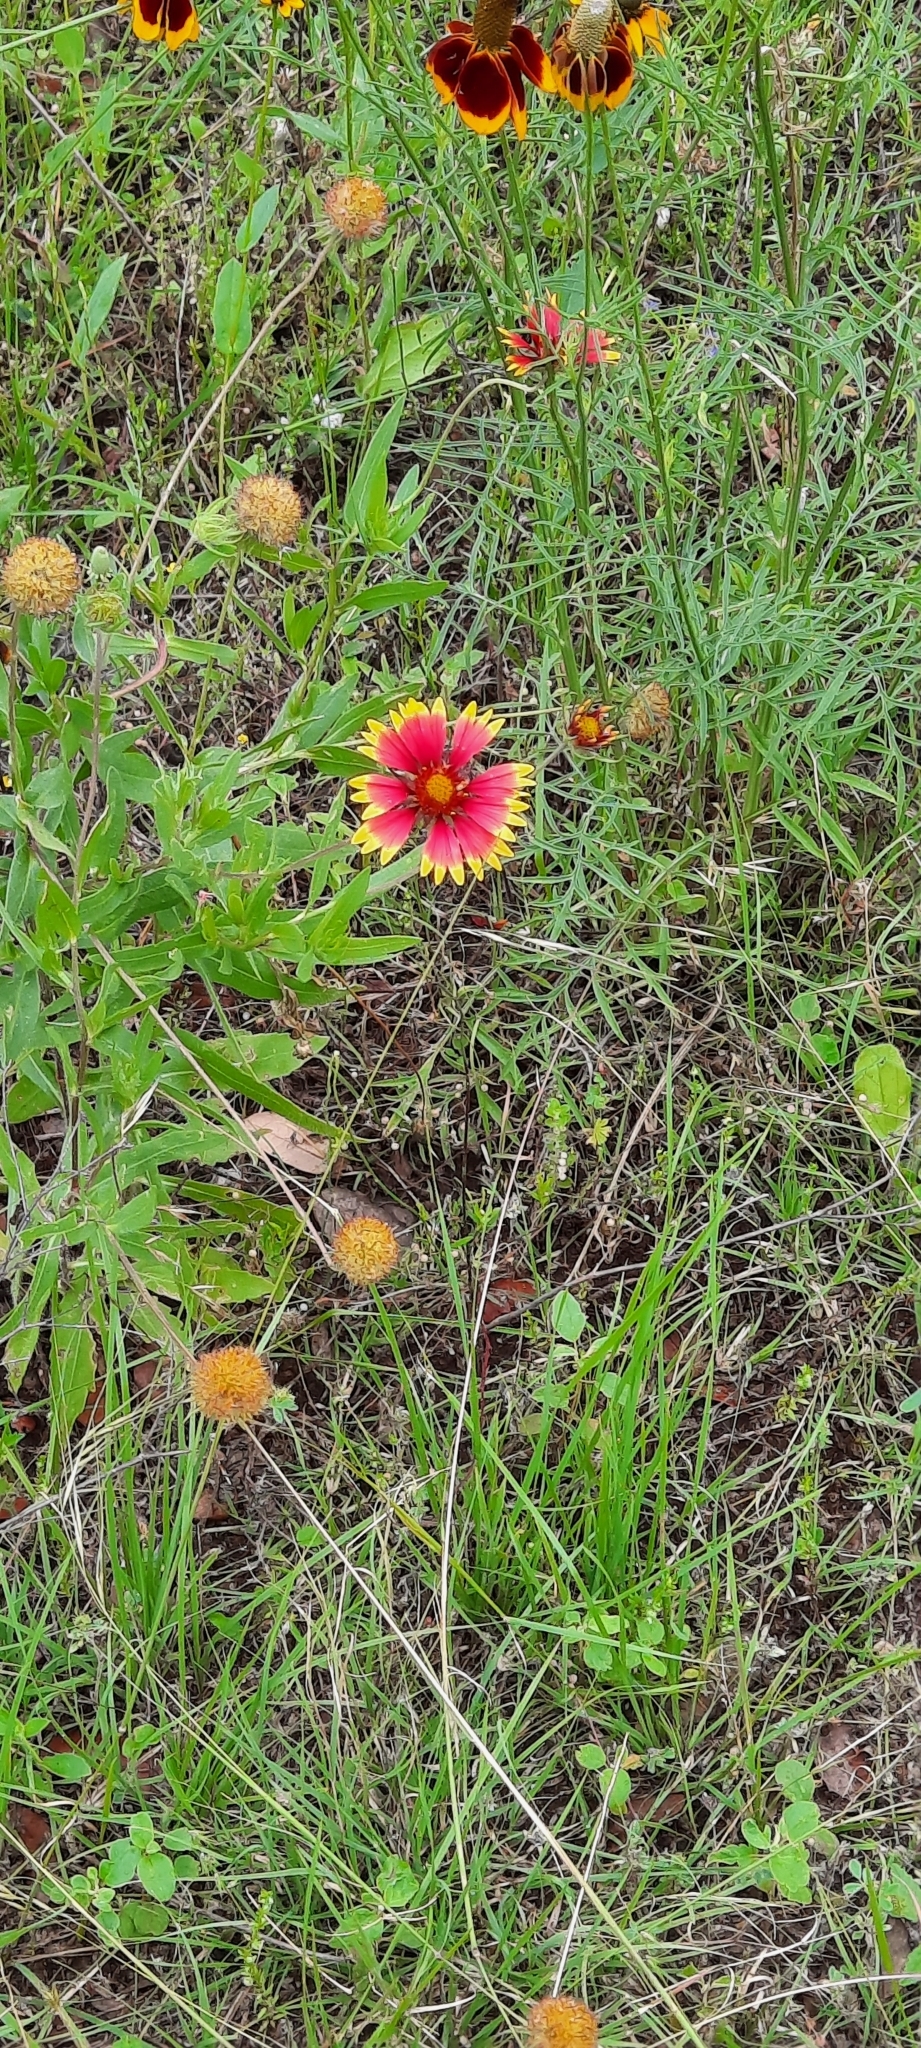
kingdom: Plantae
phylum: Tracheophyta
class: Magnoliopsida
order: Asterales
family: Asteraceae
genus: Gaillardia
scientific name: Gaillardia pulchella
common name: Firewheel
